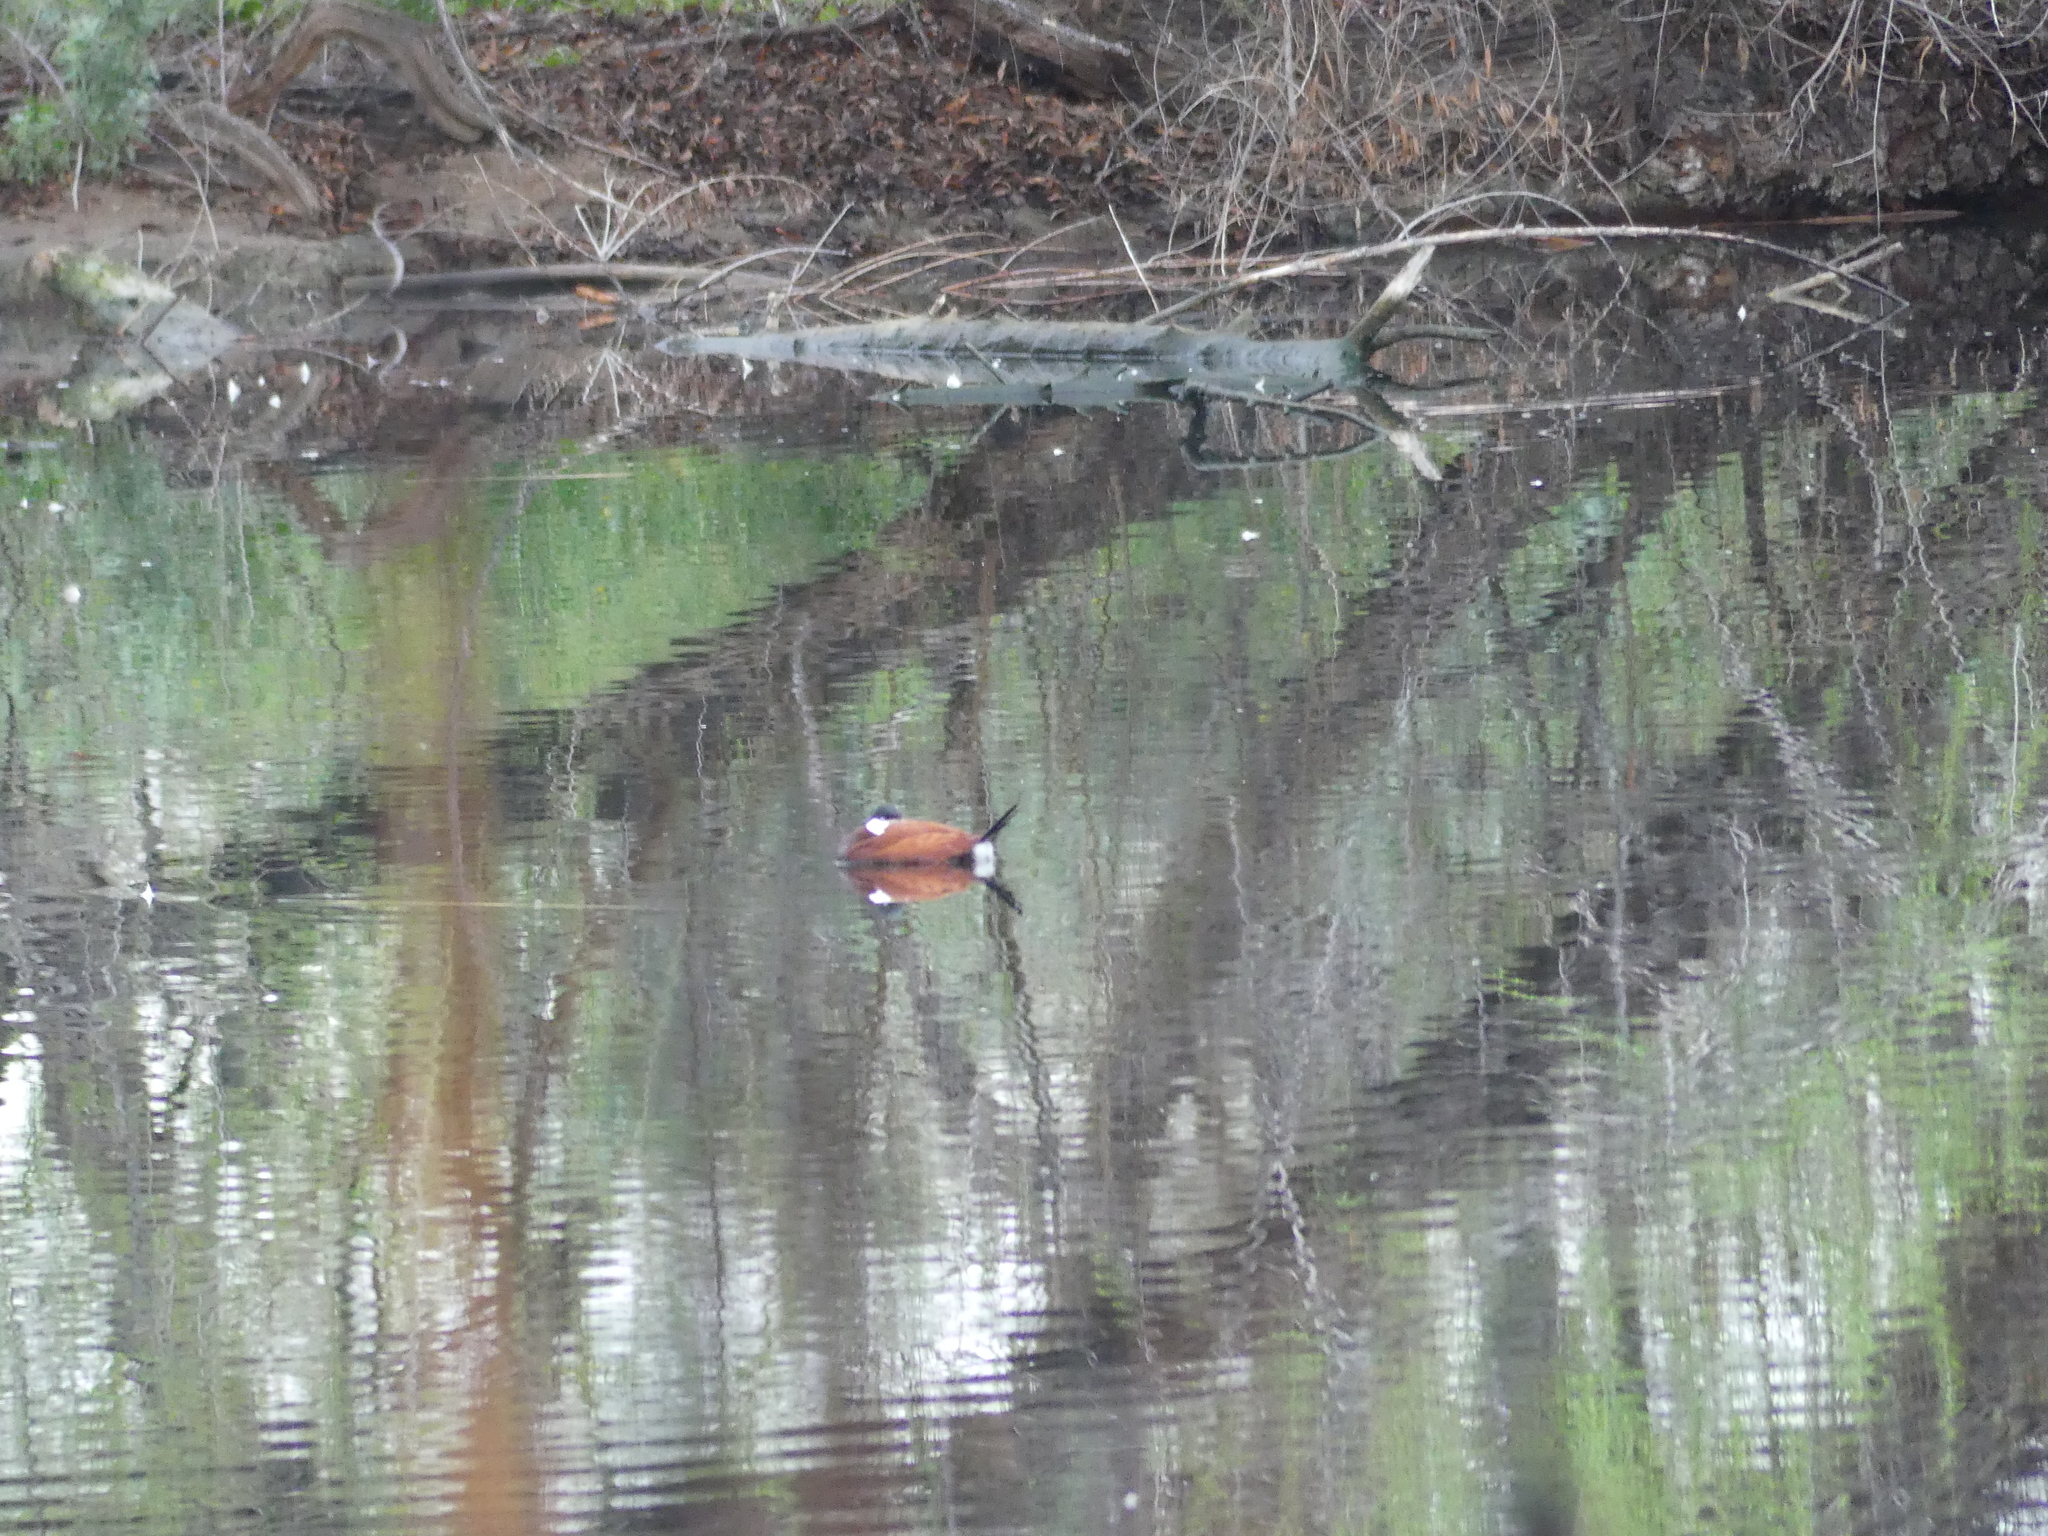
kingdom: Animalia
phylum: Chordata
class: Aves
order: Anseriformes
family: Anatidae
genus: Oxyura
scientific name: Oxyura jamaicensis
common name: Ruddy duck
